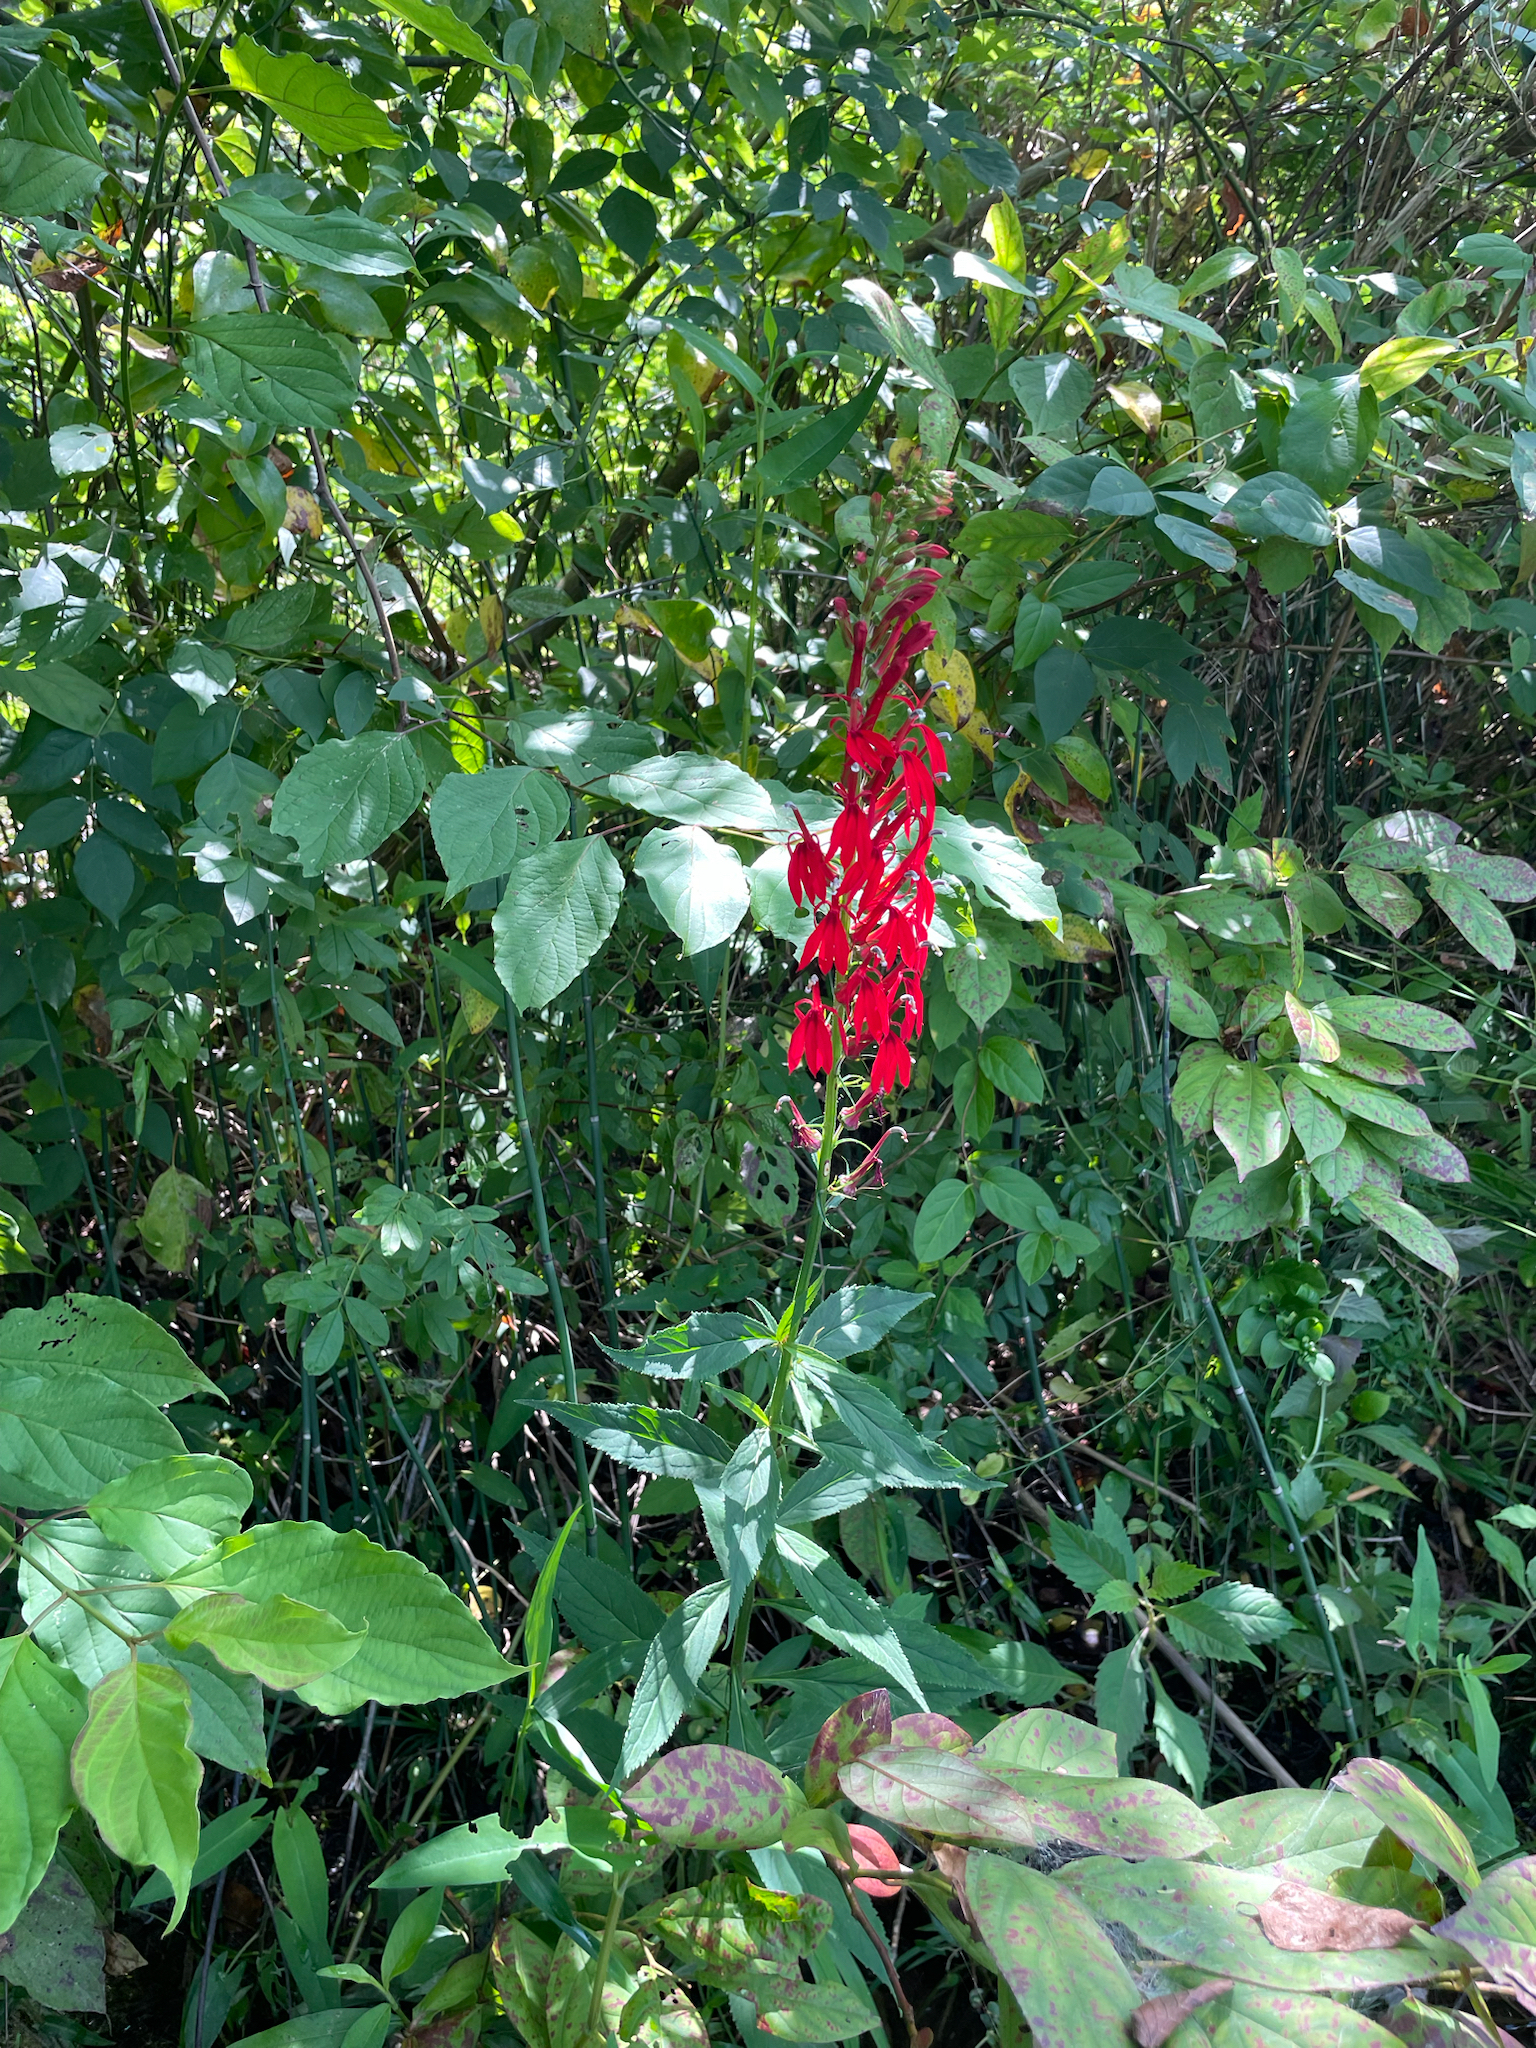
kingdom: Plantae
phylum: Tracheophyta
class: Magnoliopsida
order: Asterales
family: Campanulaceae
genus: Lobelia
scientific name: Lobelia cardinalis
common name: Cardinal flower
